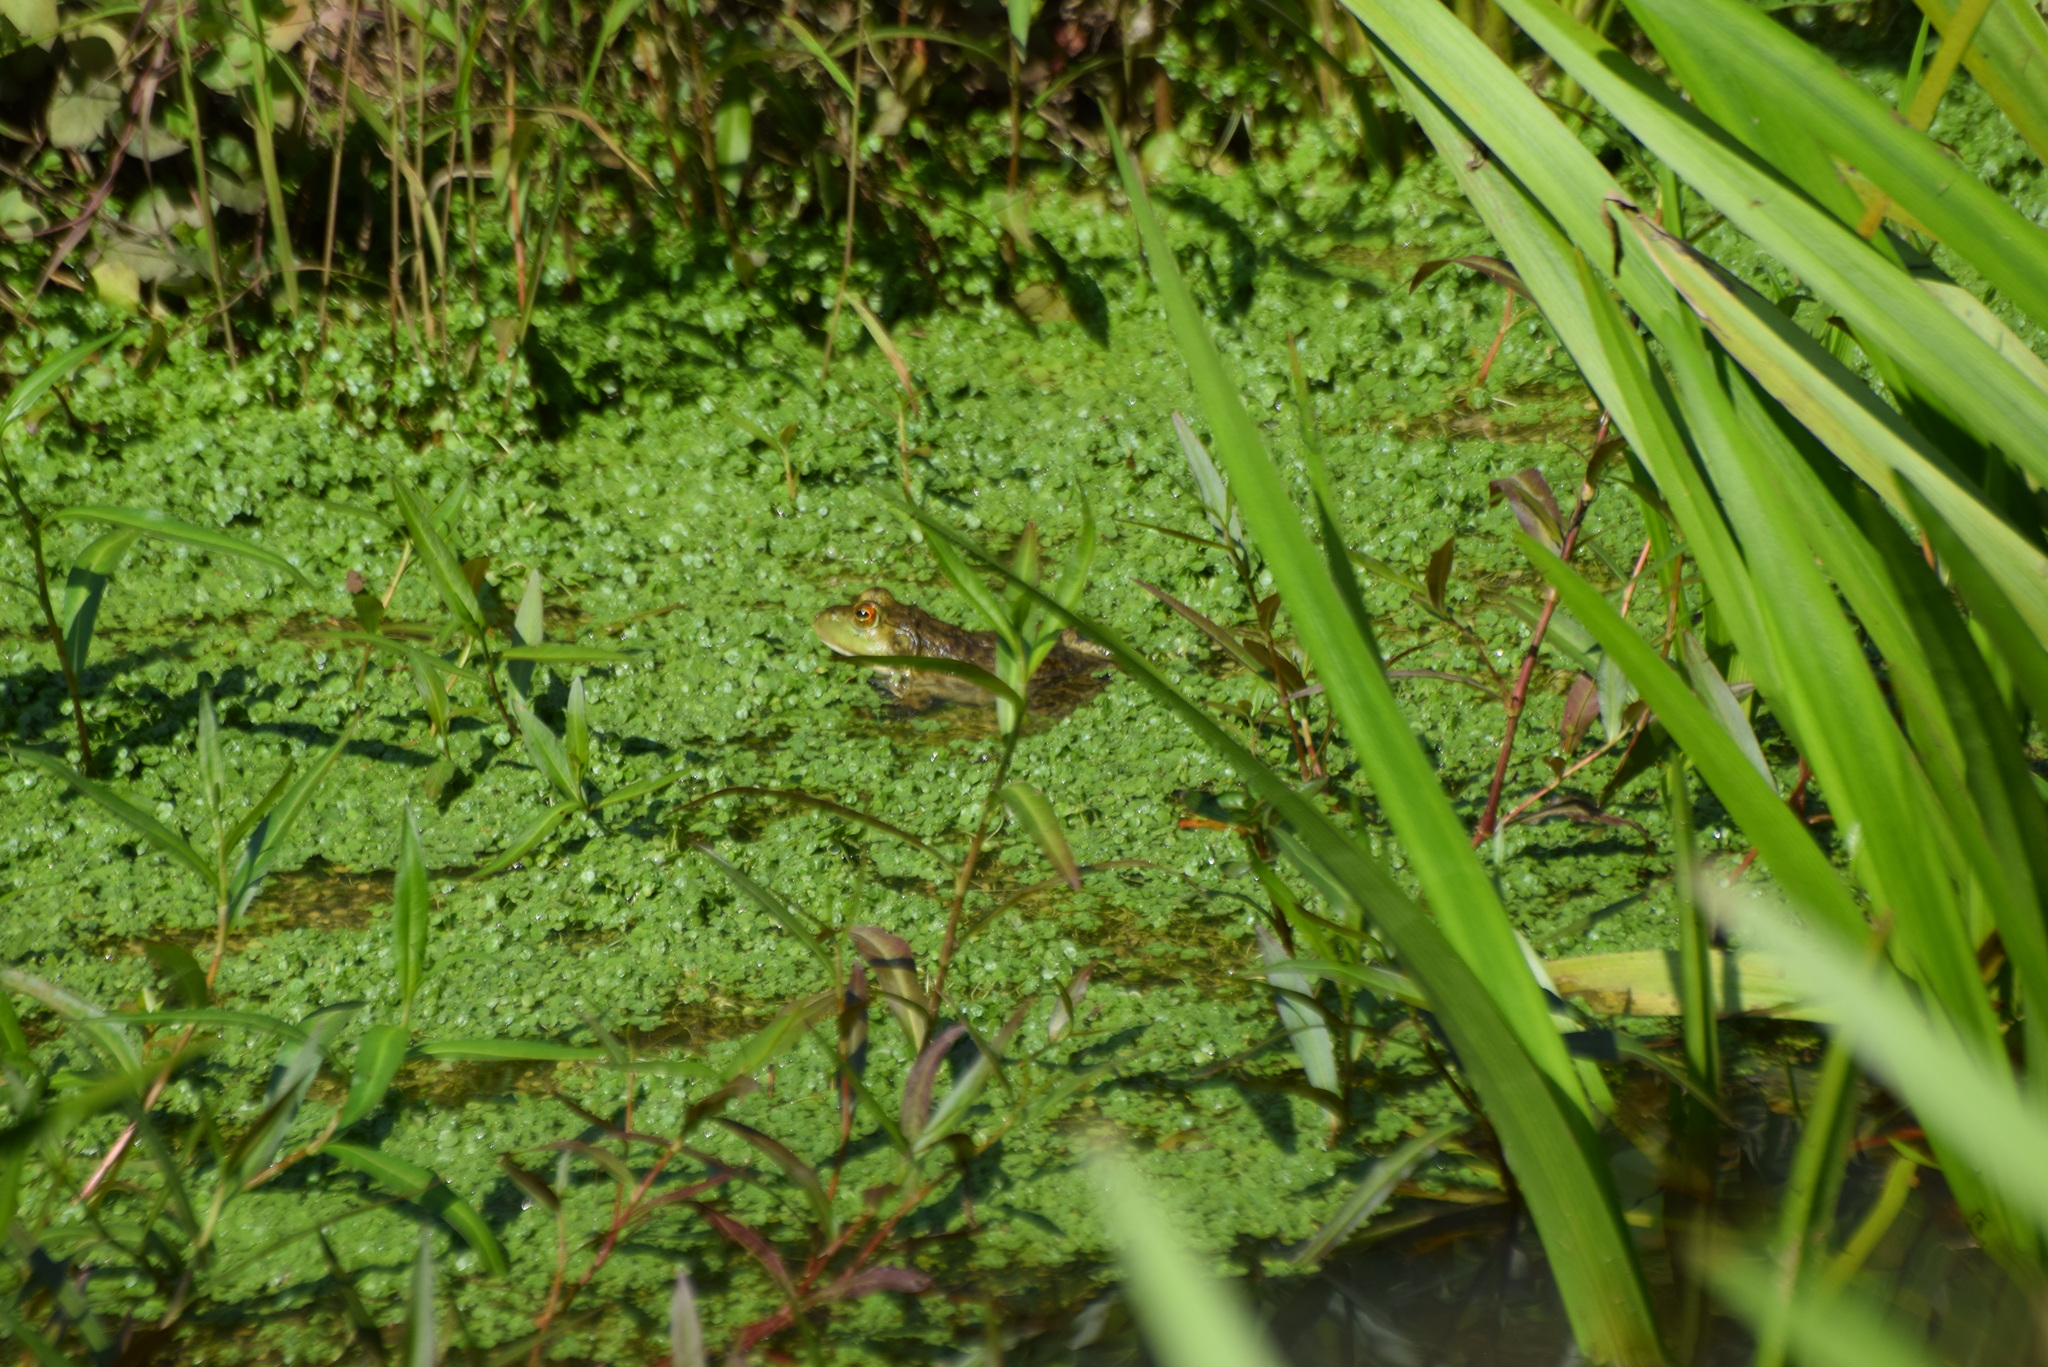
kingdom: Animalia
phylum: Chordata
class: Amphibia
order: Anura
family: Ranidae
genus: Lithobates
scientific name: Lithobates catesbeianus
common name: American bullfrog
